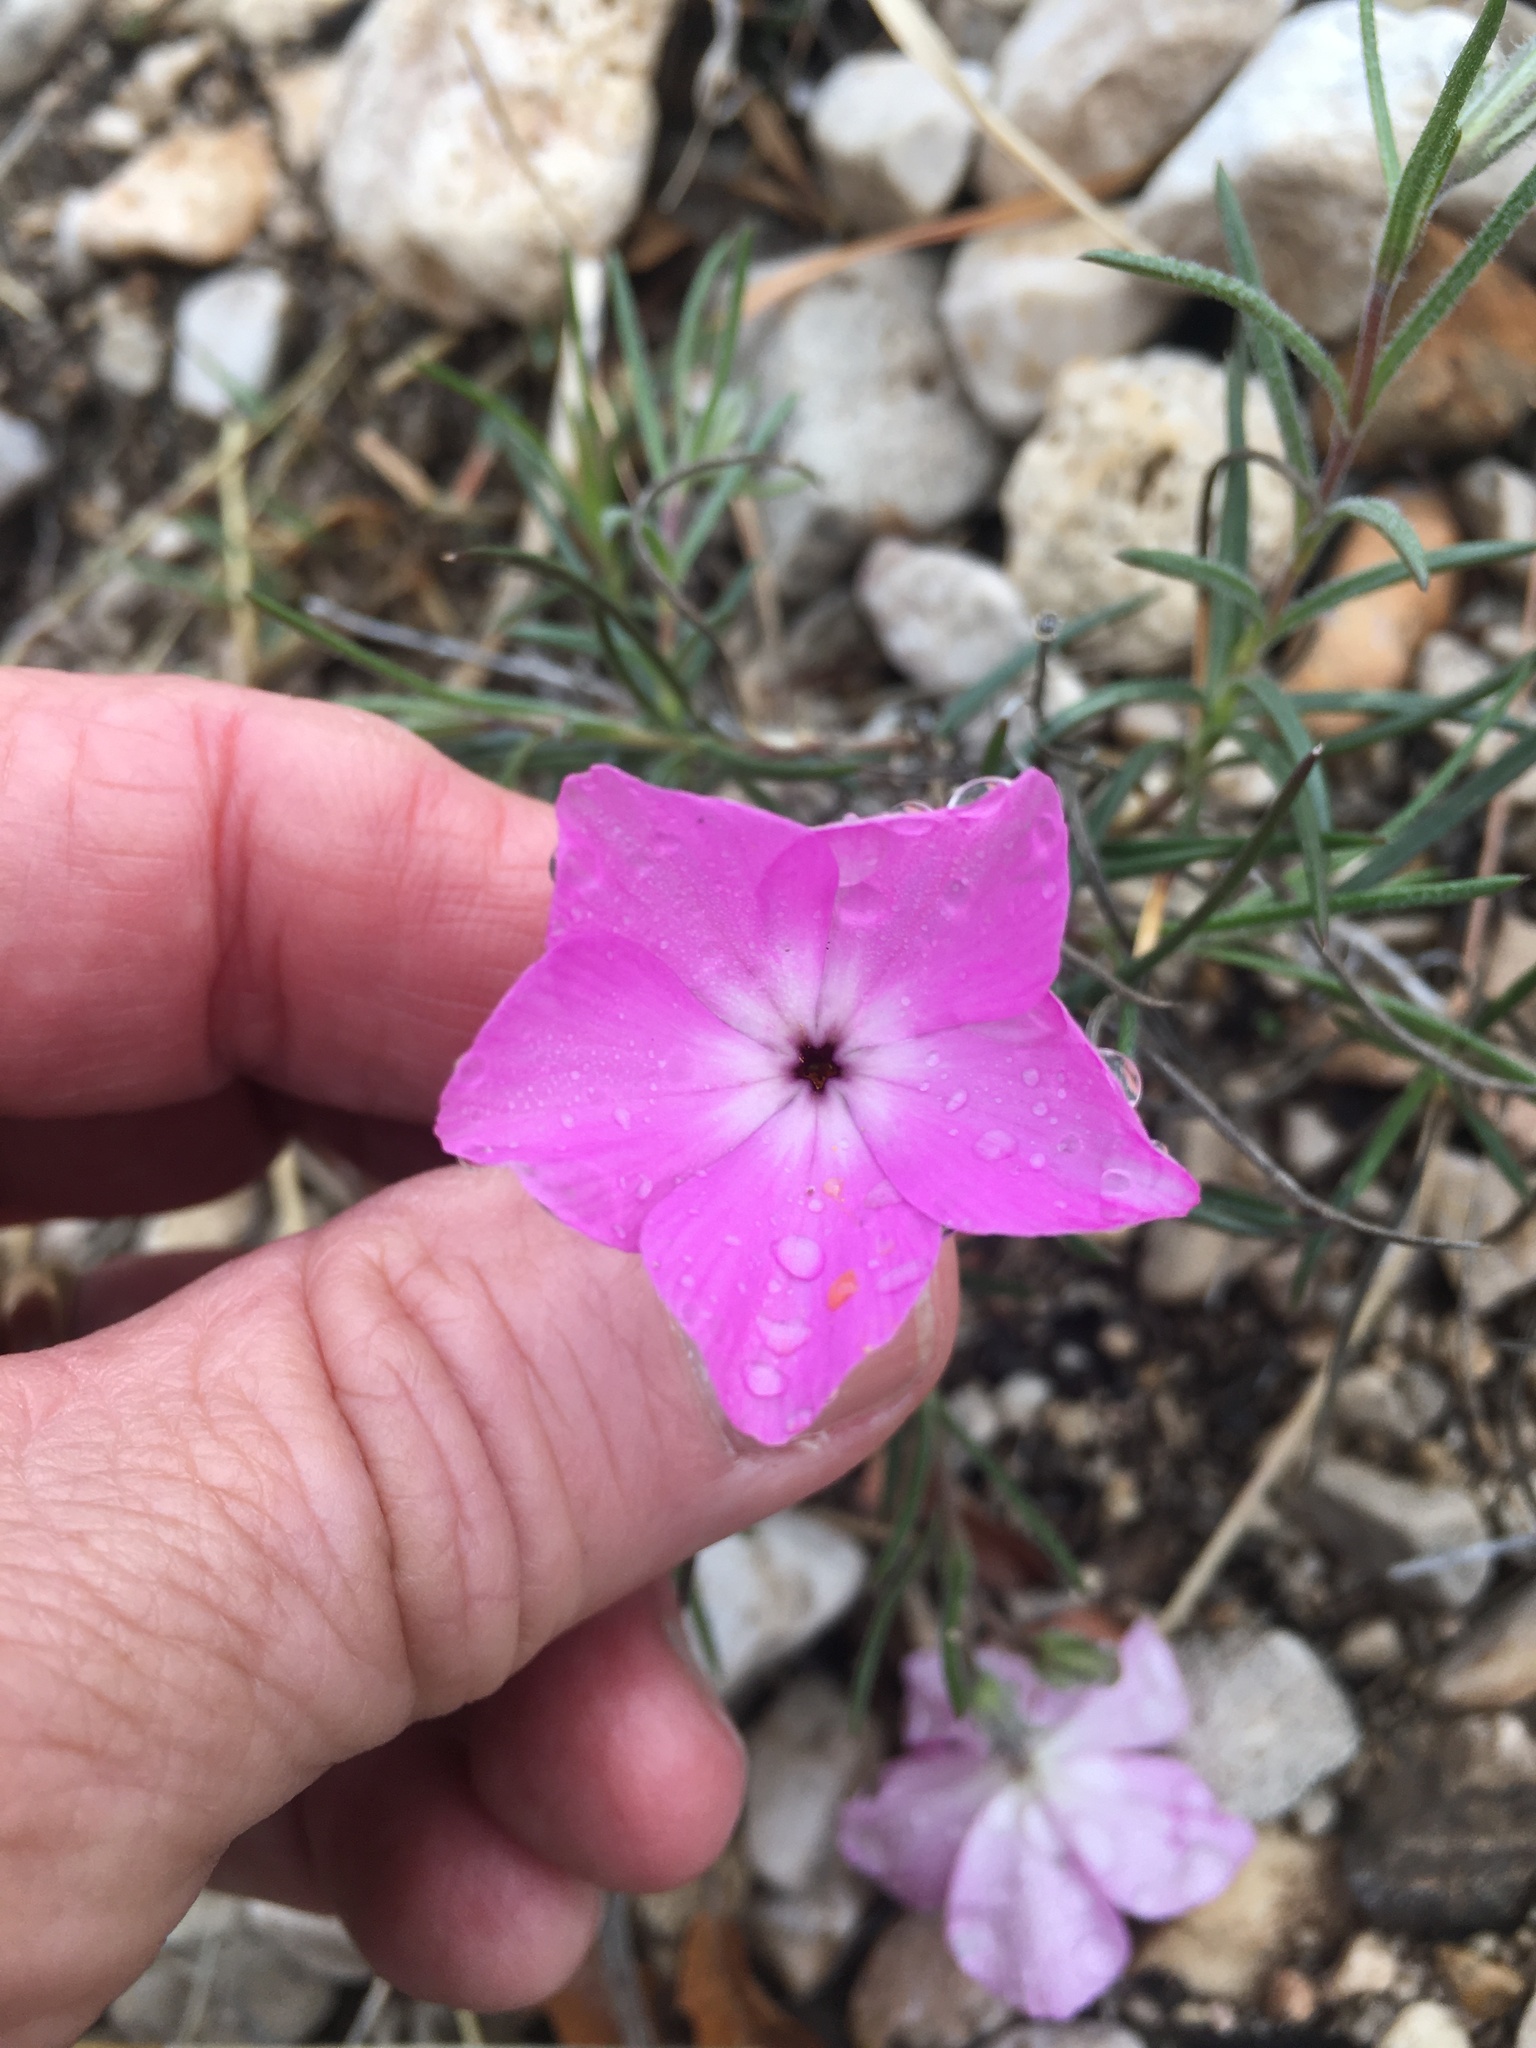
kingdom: Plantae
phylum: Tracheophyta
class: Magnoliopsida
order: Ericales
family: Polemoniaceae
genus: Phlox
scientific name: Phlox nana
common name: Santa fe phlox
